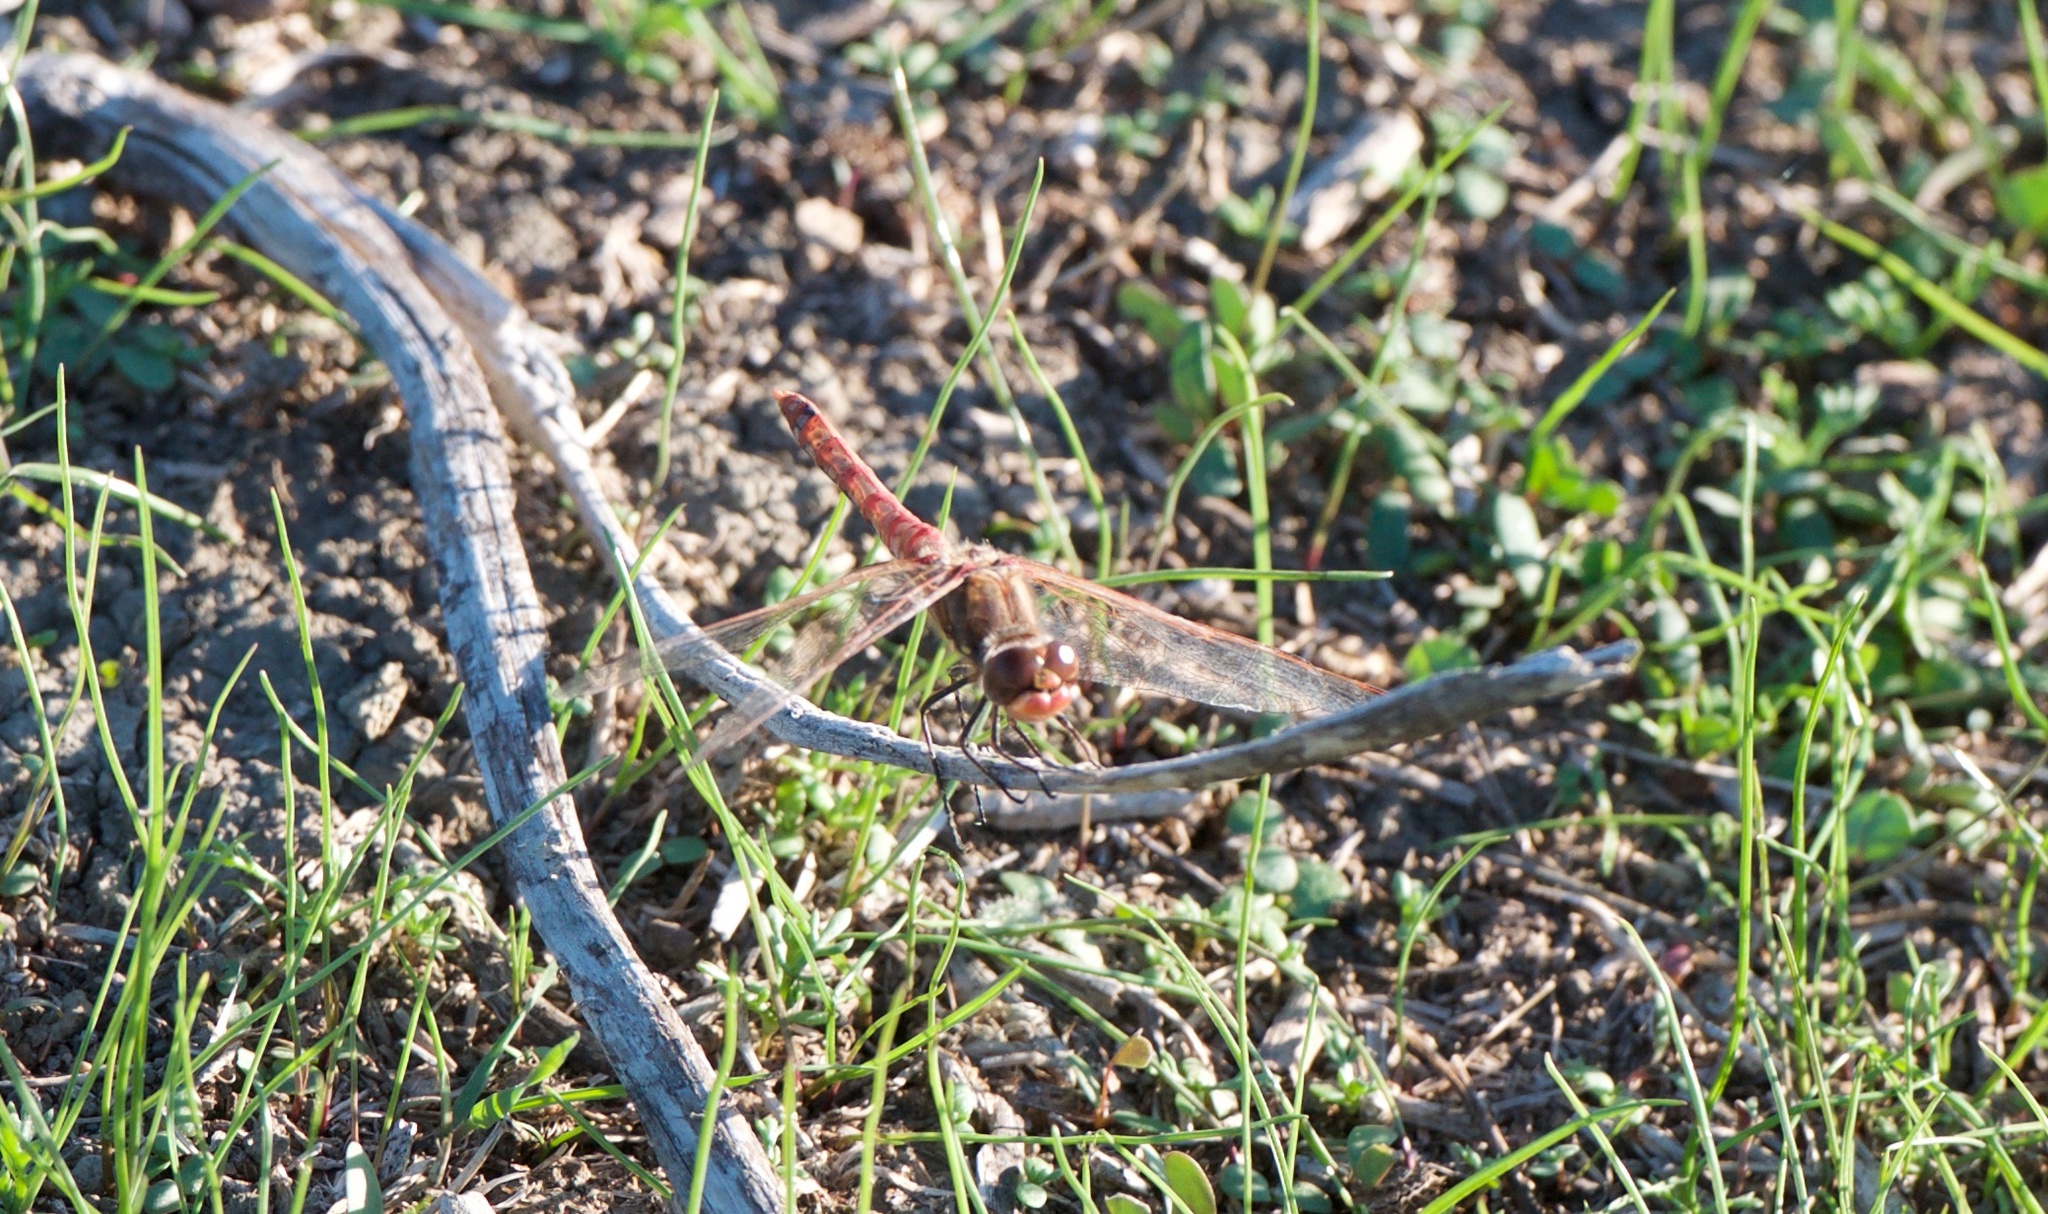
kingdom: Animalia
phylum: Arthropoda
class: Insecta
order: Odonata
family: Libellulidae
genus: Sympetrum
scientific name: Sympetrum corruptum
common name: Variegated meadowhawk
